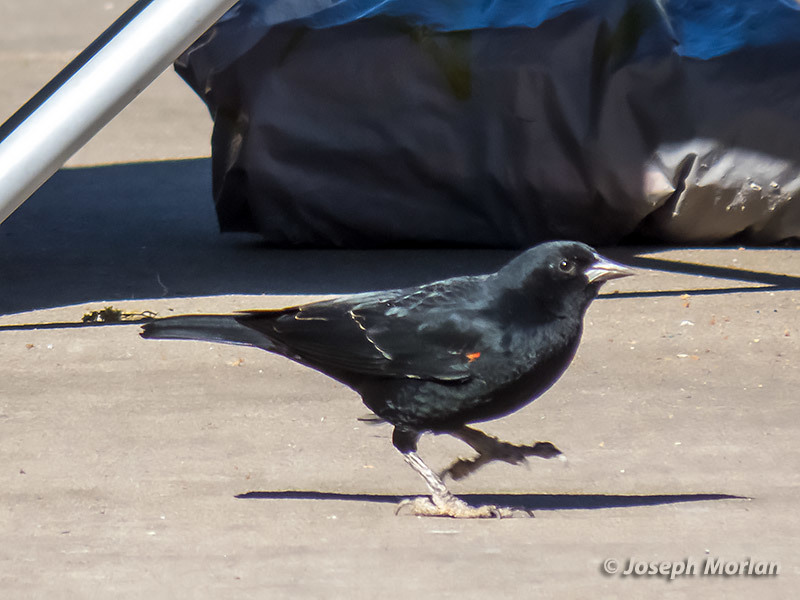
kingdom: Animalia
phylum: Chordata
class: Aves
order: Passeriformes
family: Icteridae
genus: Agelaius
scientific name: Agelaius phoeniceus
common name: Red-winged blackbird
